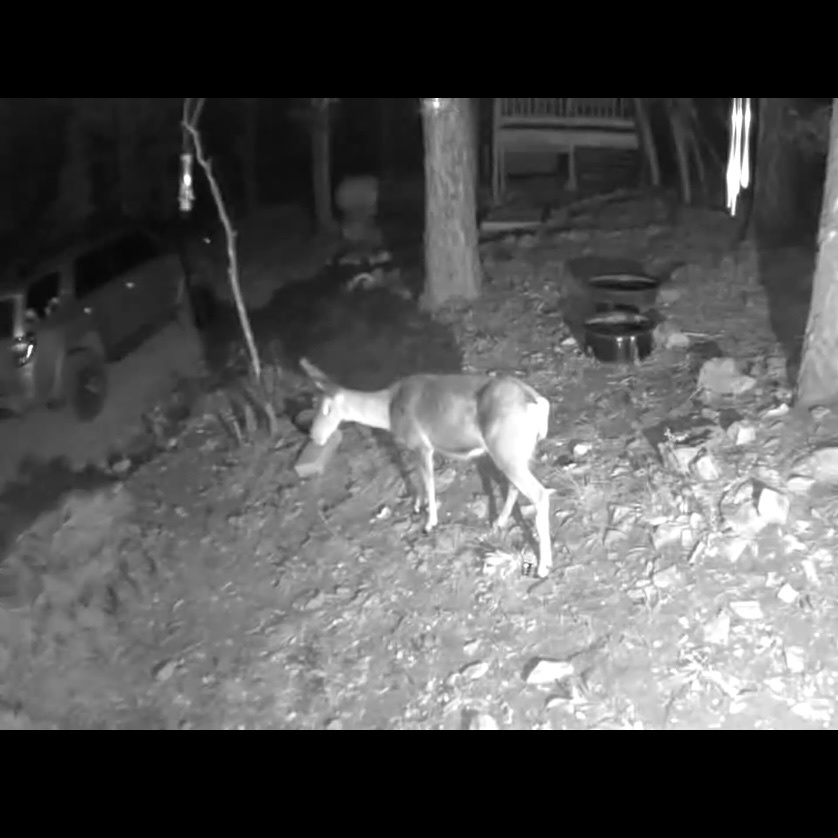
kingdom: Animalia
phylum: Chordata
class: Mammalia
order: Artiodactyla
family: Cervidae
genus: Odocoileus
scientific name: Odocoileus hemionus
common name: Mule deer
